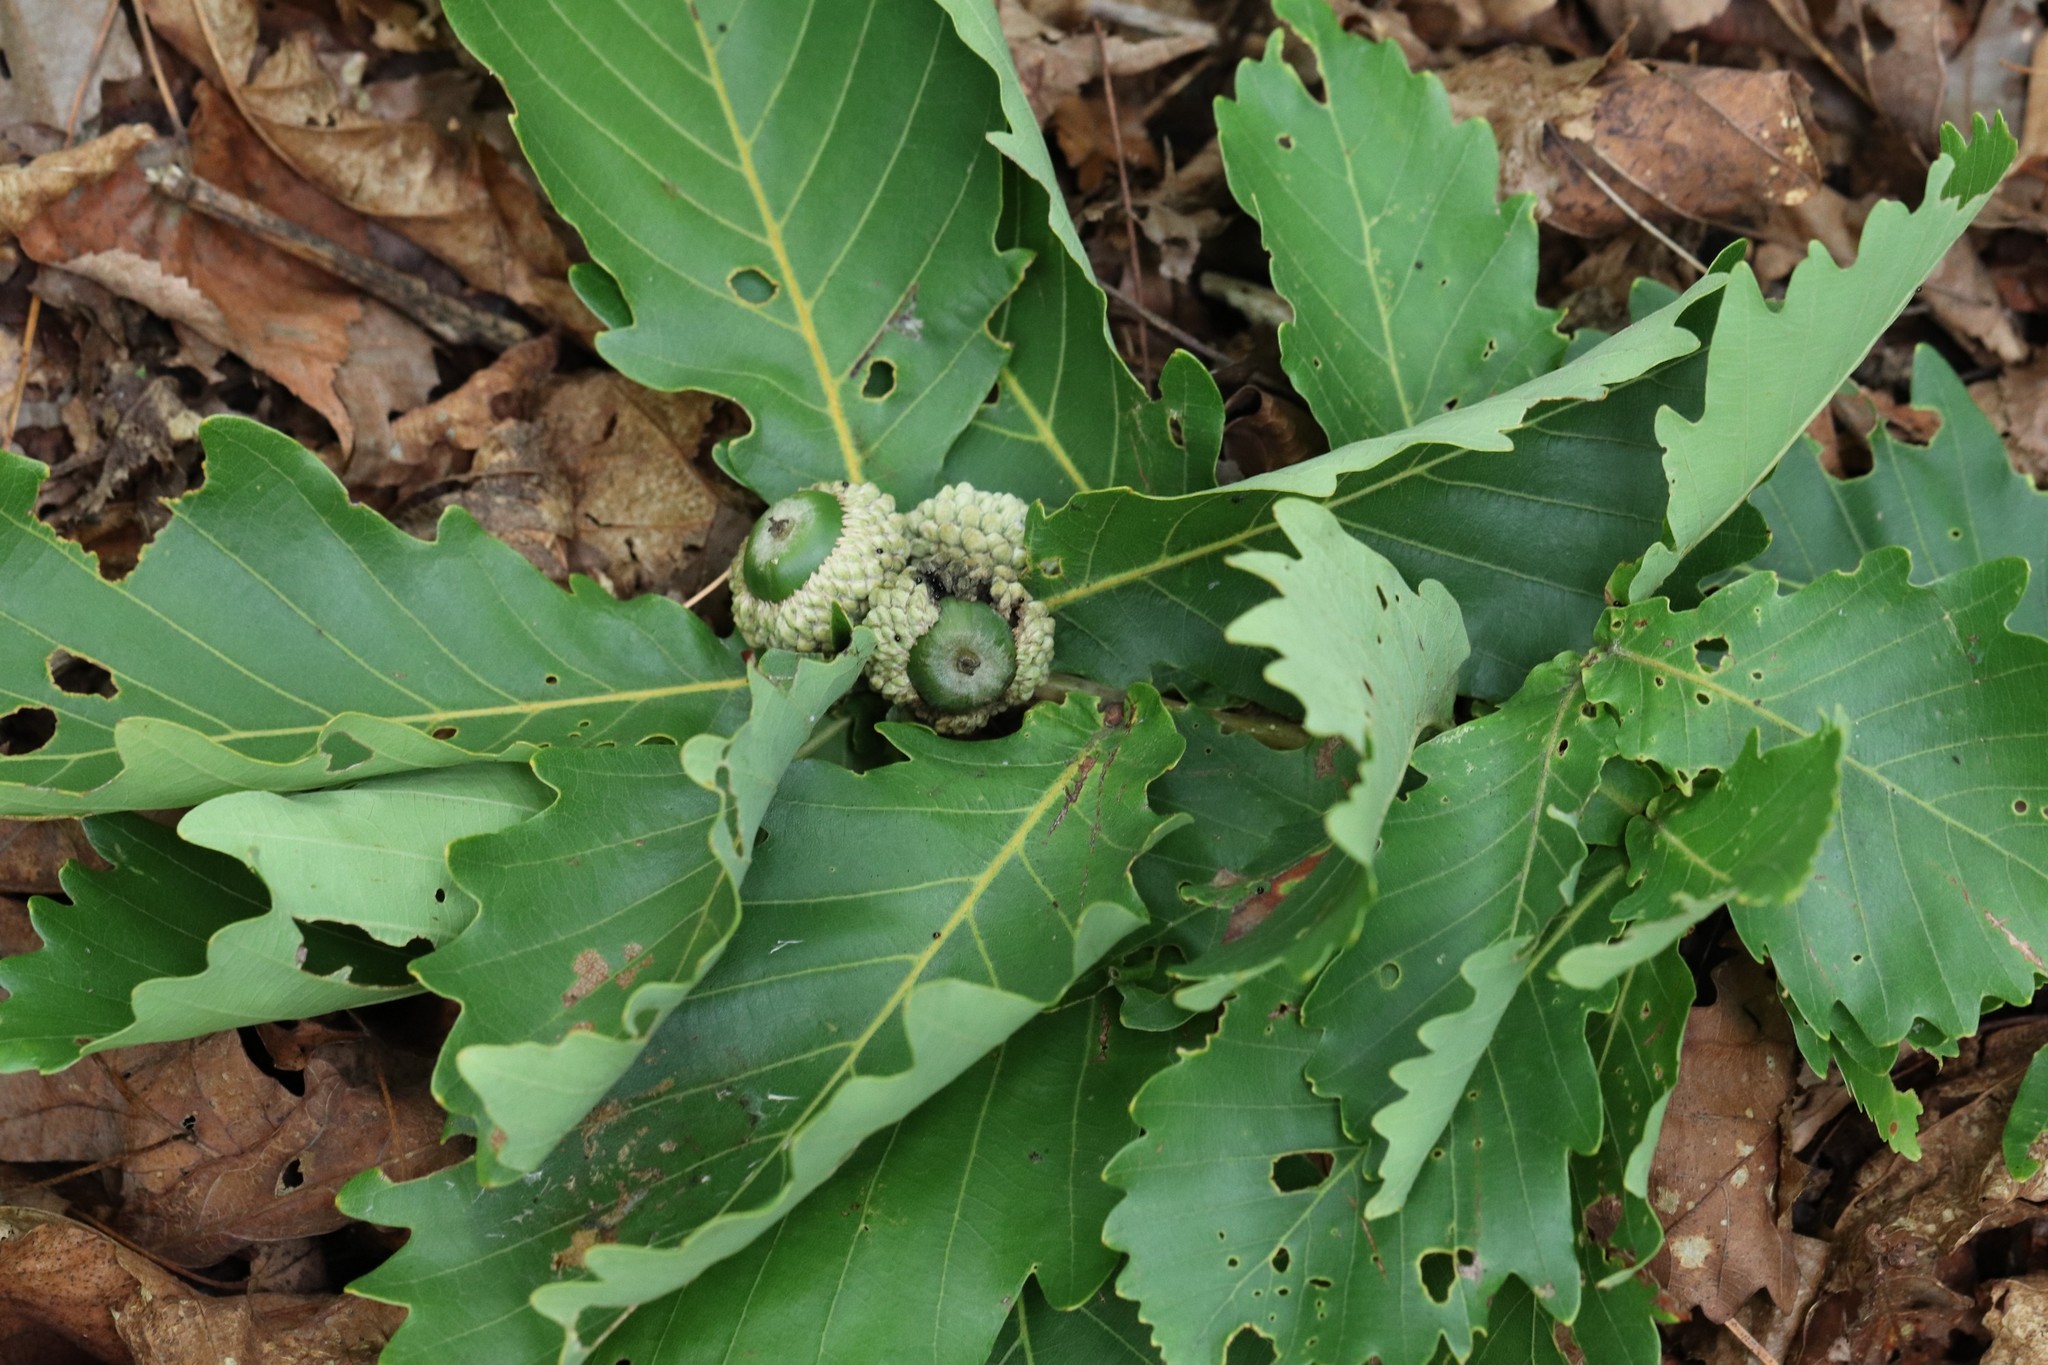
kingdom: Plantae
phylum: Tracheophyta
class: Magnoliopsida
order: Fagales
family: Fagaceae
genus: Quercus
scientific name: Quercus mongolica
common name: Mongolian oak
